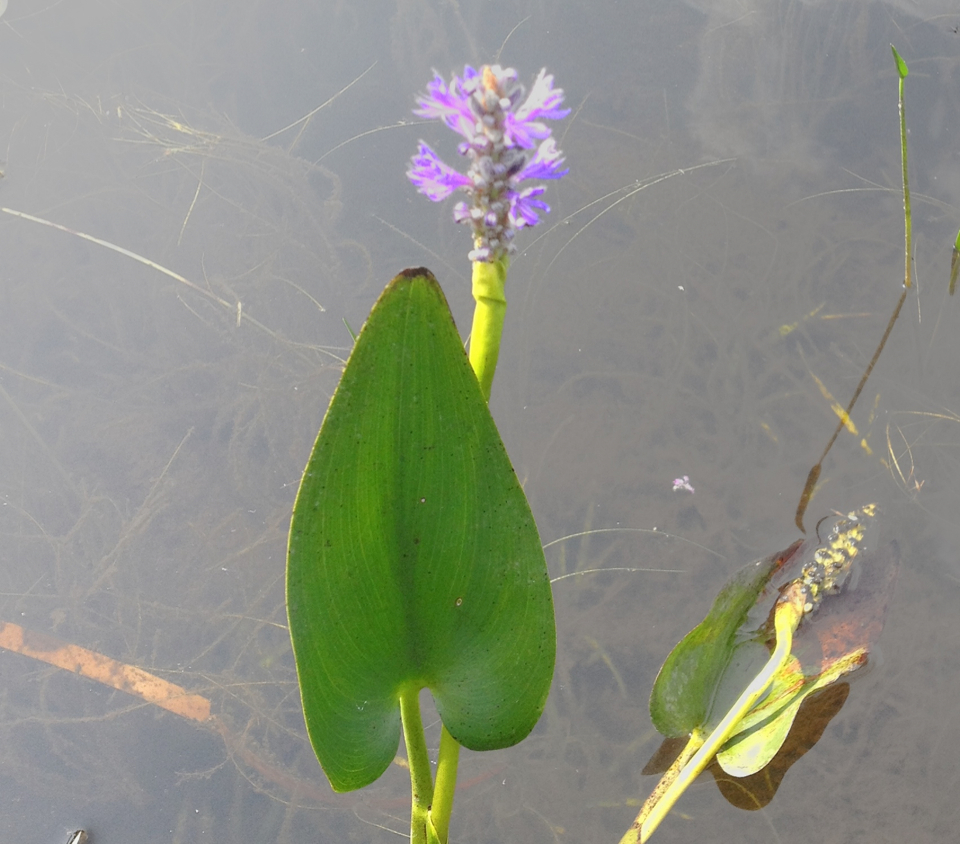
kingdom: Plantae
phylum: Tracheophyta
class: Liliopsida
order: Commelinales
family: Pontederiaceae
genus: Pontederia
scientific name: Pontederia cordata
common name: Pickerelweed
